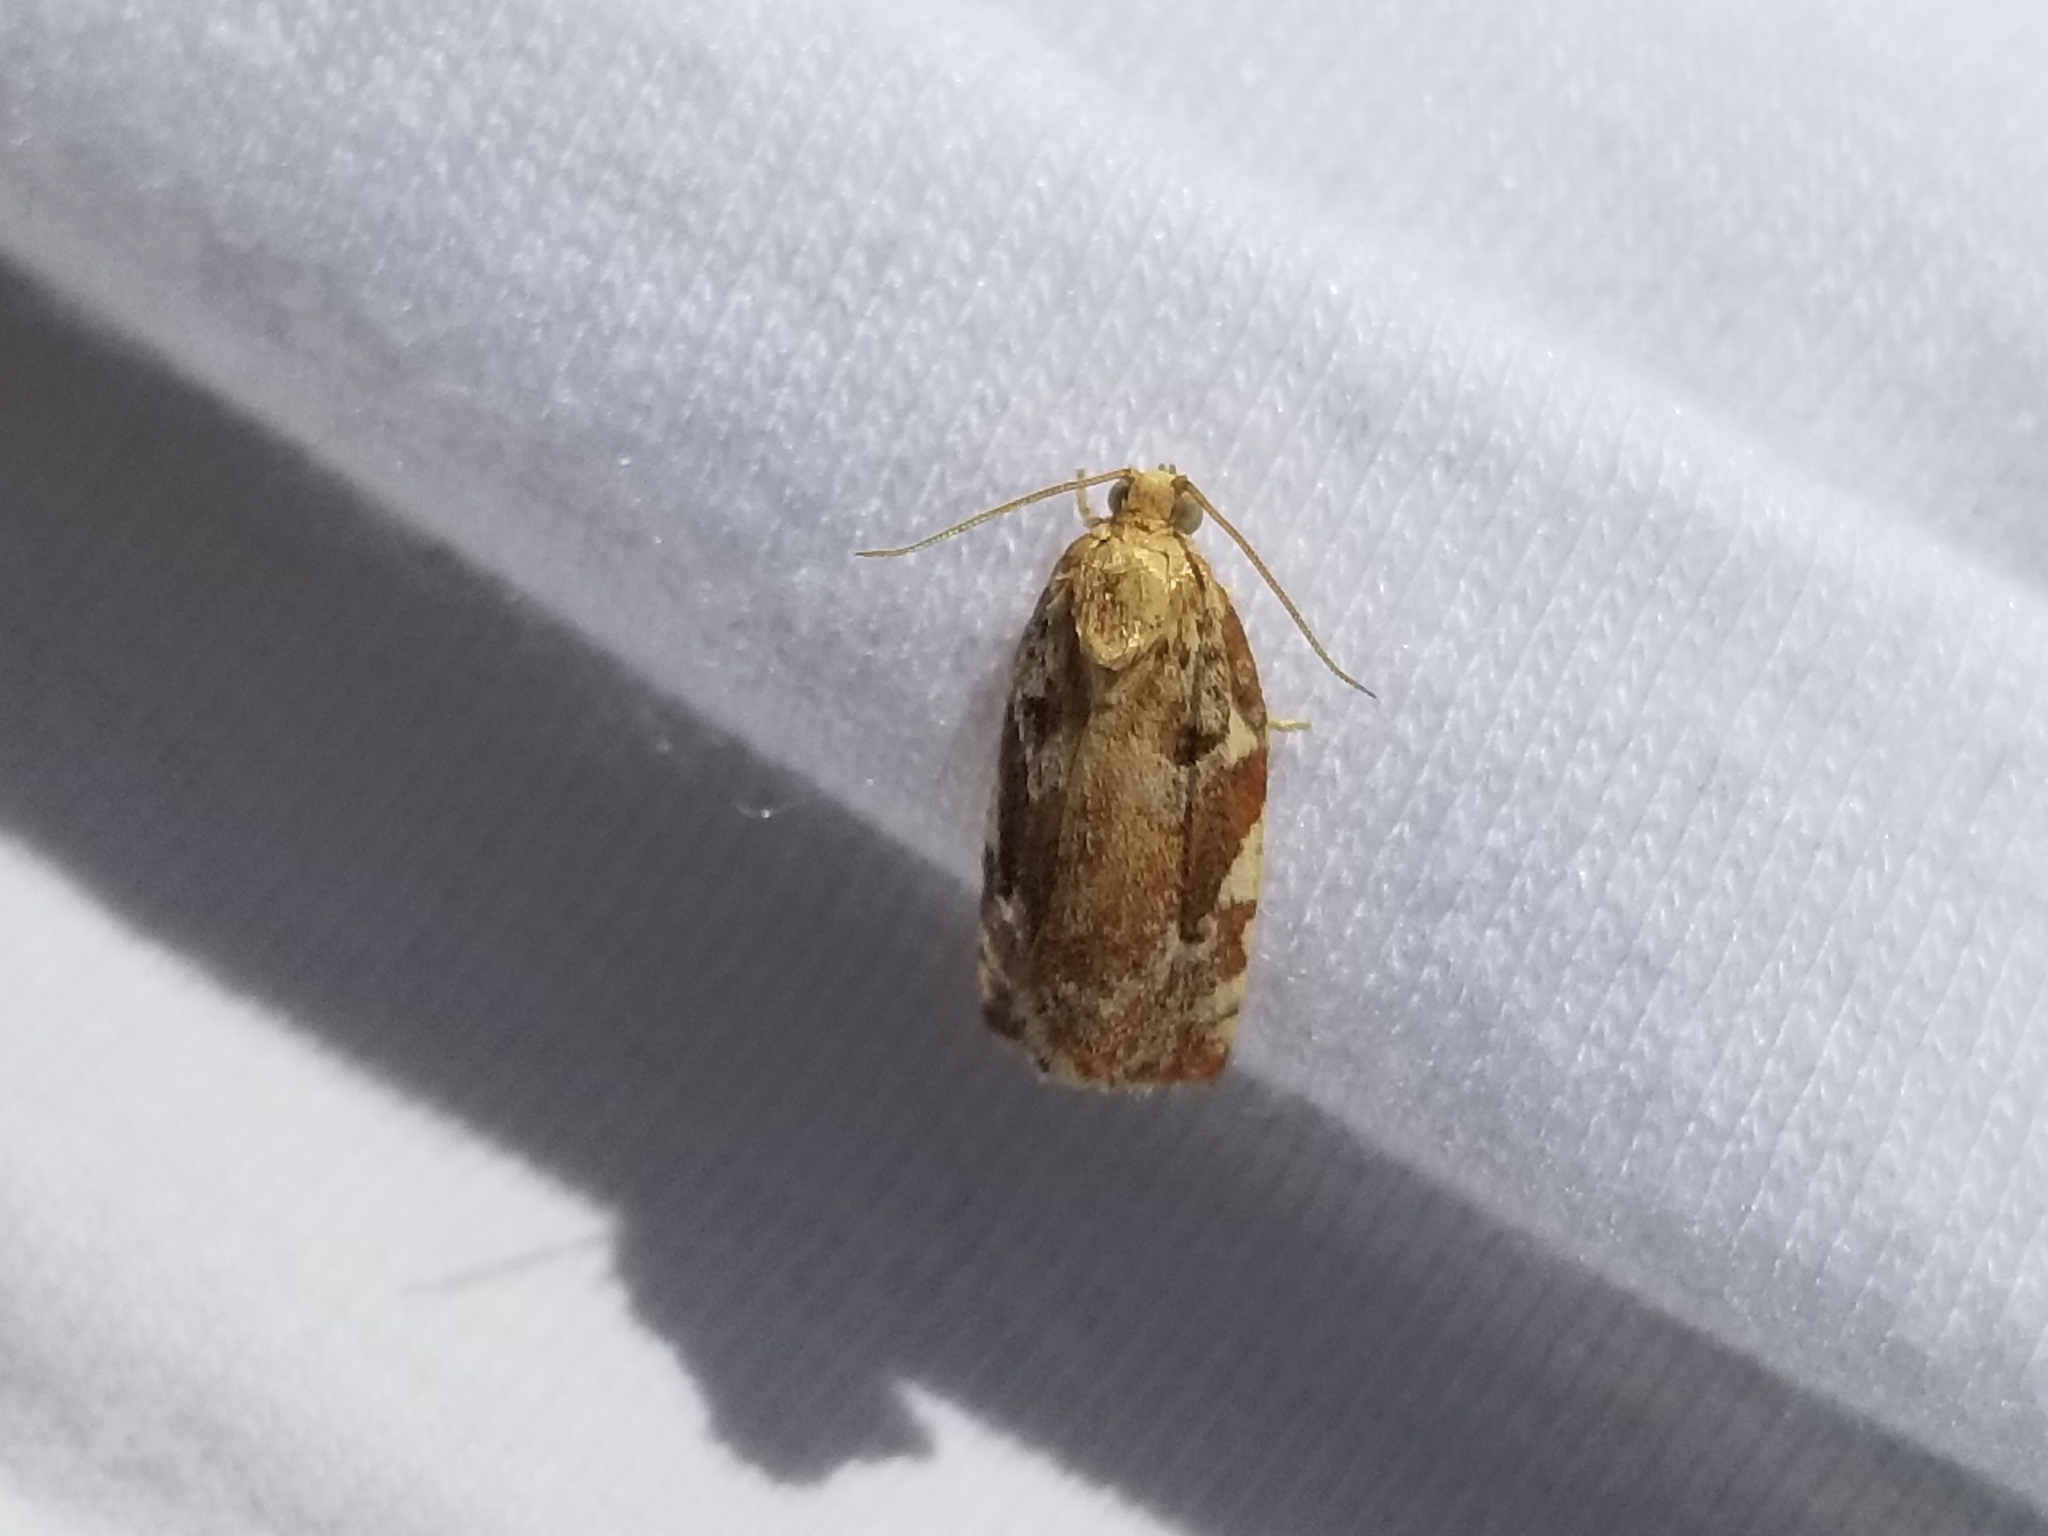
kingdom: Animalia
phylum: Arthropoda
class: Insecta
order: Lepidoptera
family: Tortricidae
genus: Archips
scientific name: Archips semiferanus
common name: Oak leafroller
